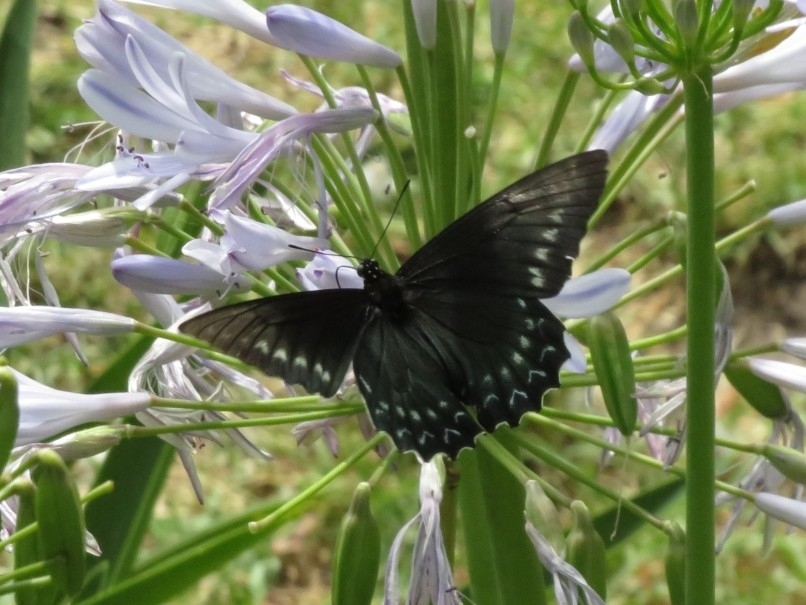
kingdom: Animalia
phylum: Arthropoda
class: Insecta
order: Lepidoptera
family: Papilionidae
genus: Battus
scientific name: Battus polystictus
